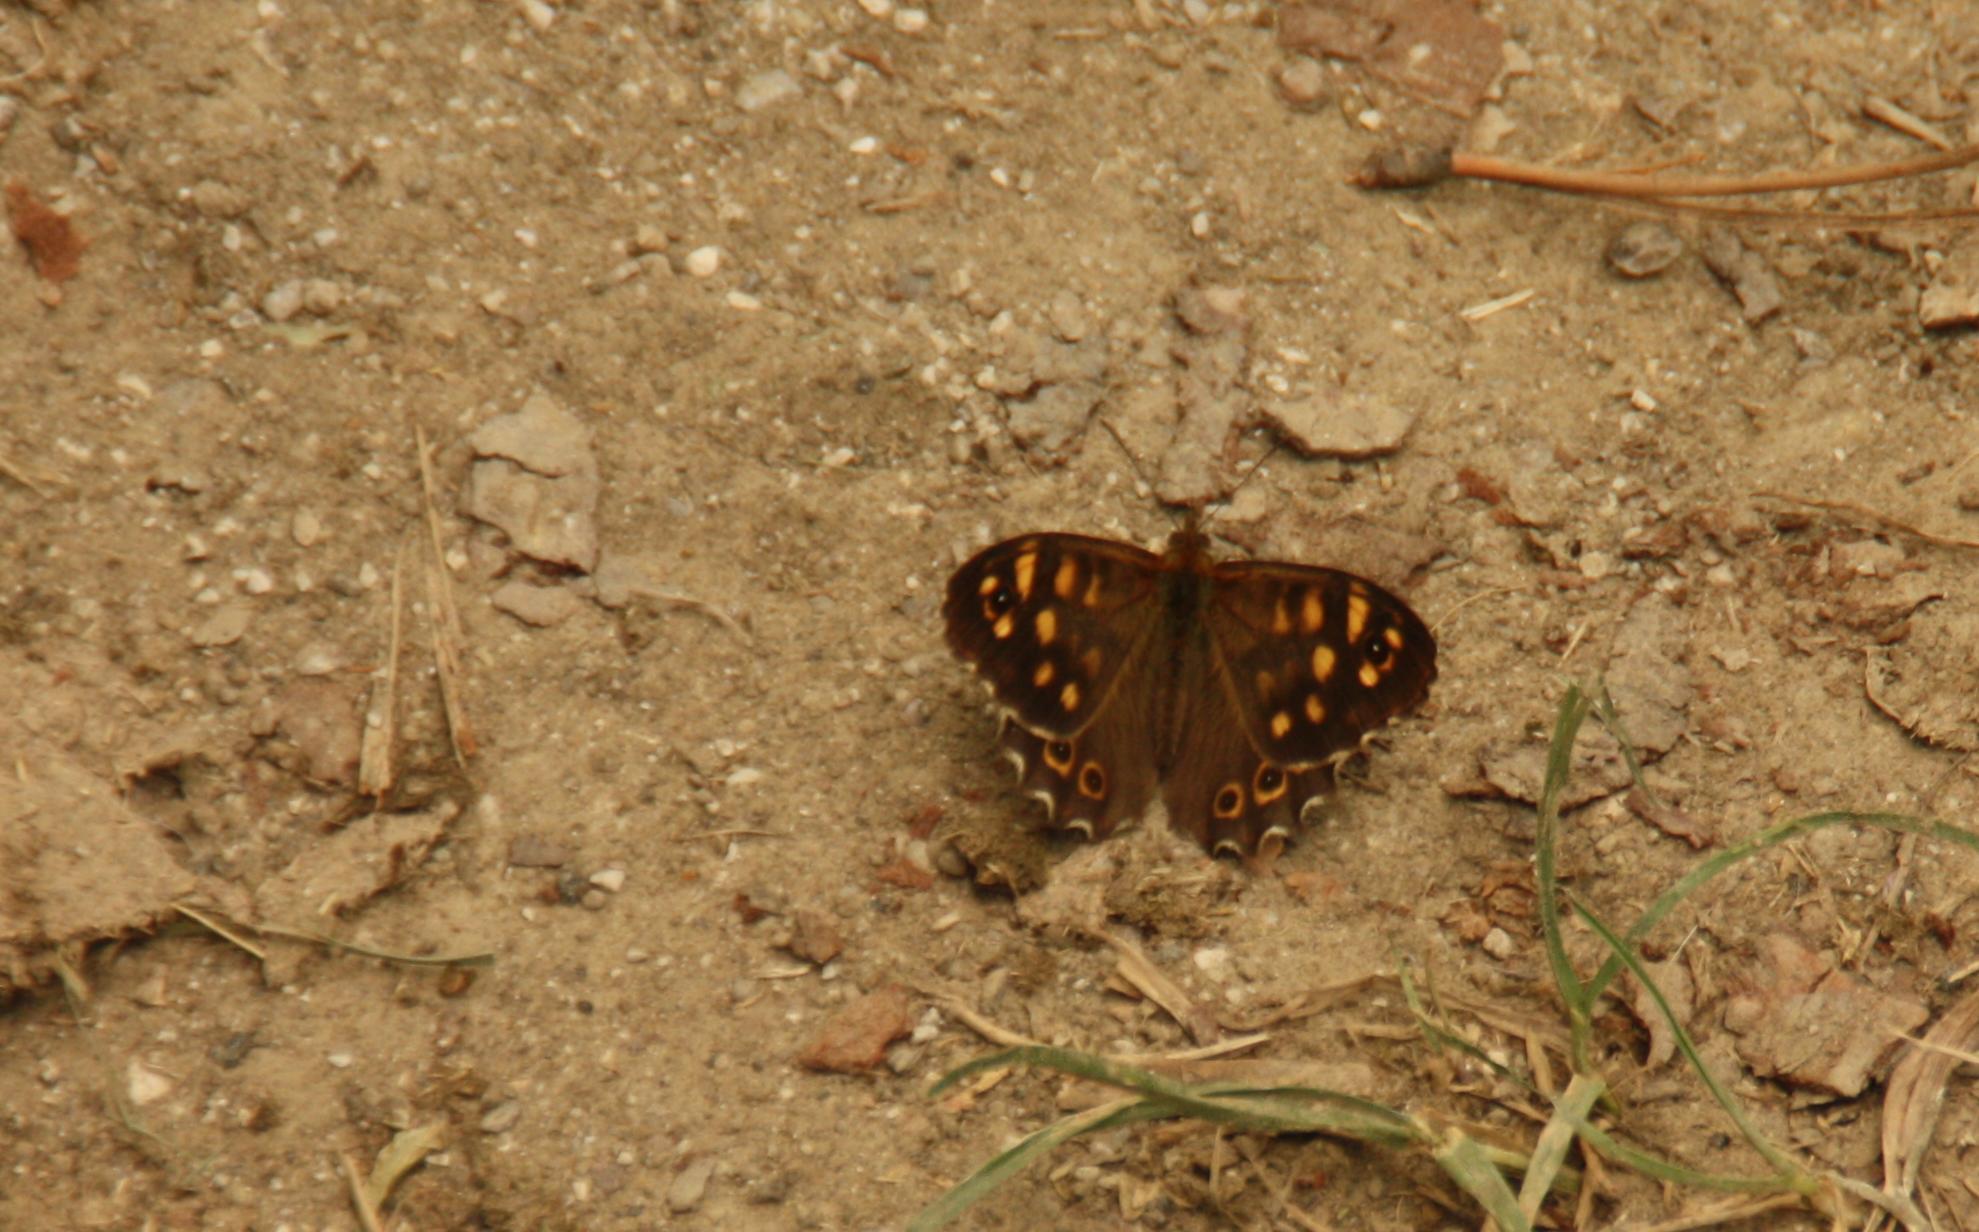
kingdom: Animalia
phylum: Arthropoda
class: Insecta
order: Lepidoptera
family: Nymphalidae
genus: Pararge
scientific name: Pararge aegeria
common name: Speckled wood
